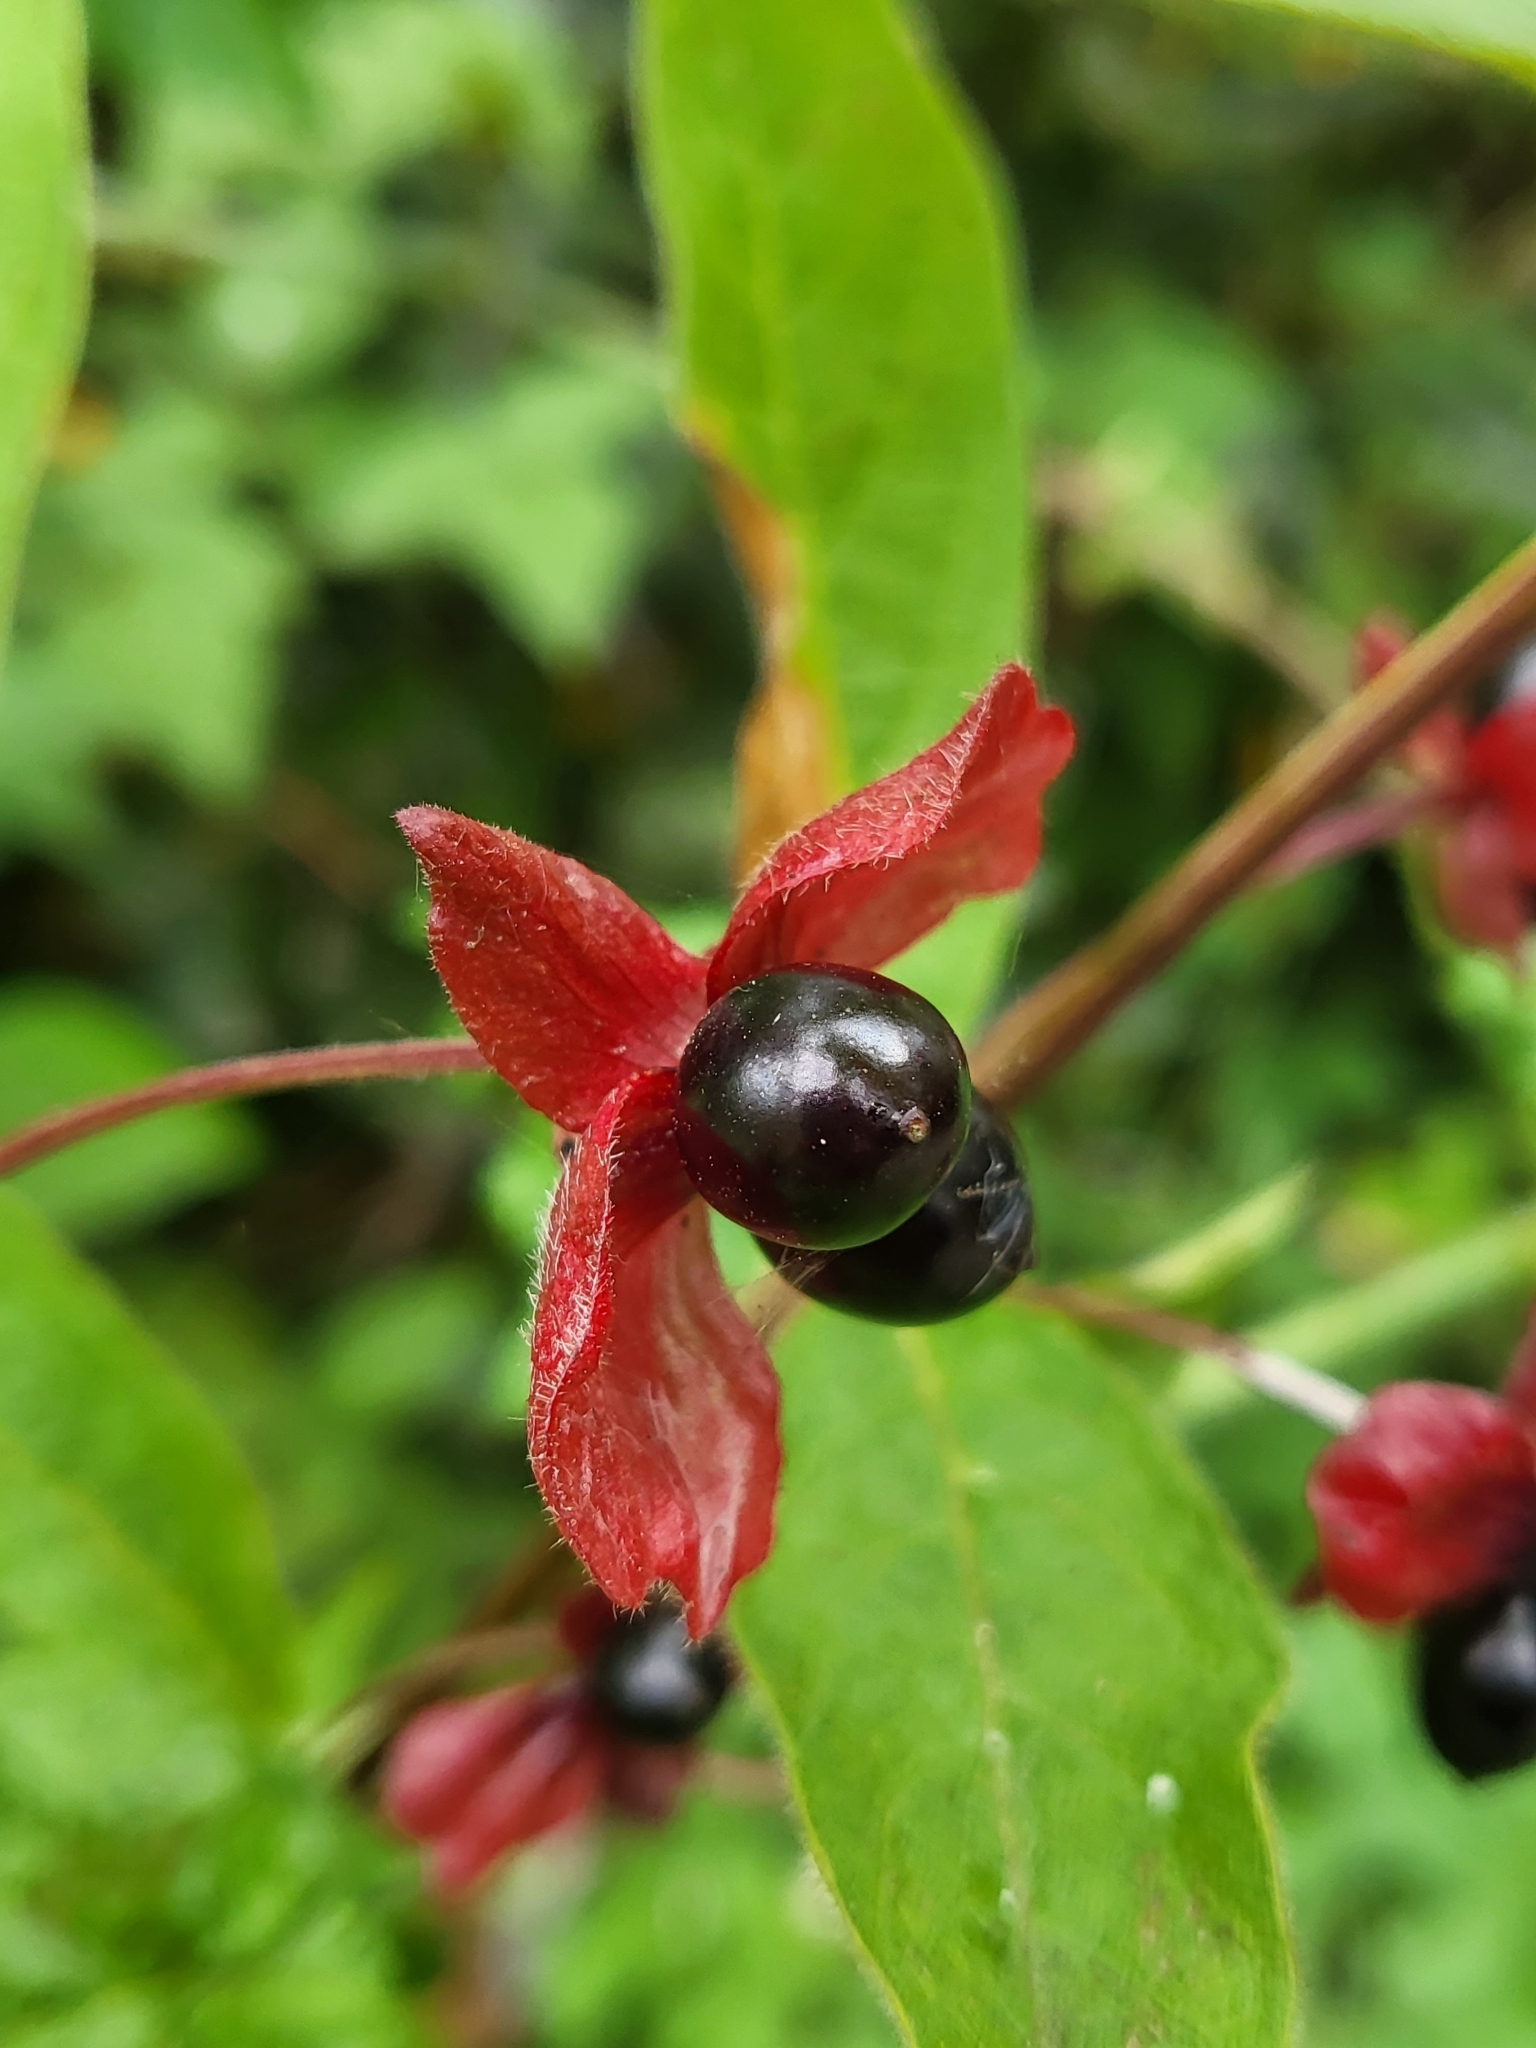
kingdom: Plantae
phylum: Tracheophyta
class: Magnoliopsida
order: Dipsacales
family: Caprifoliaceae
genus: Lonicera
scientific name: Lonicera involucrata
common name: Californian honeysuckle
